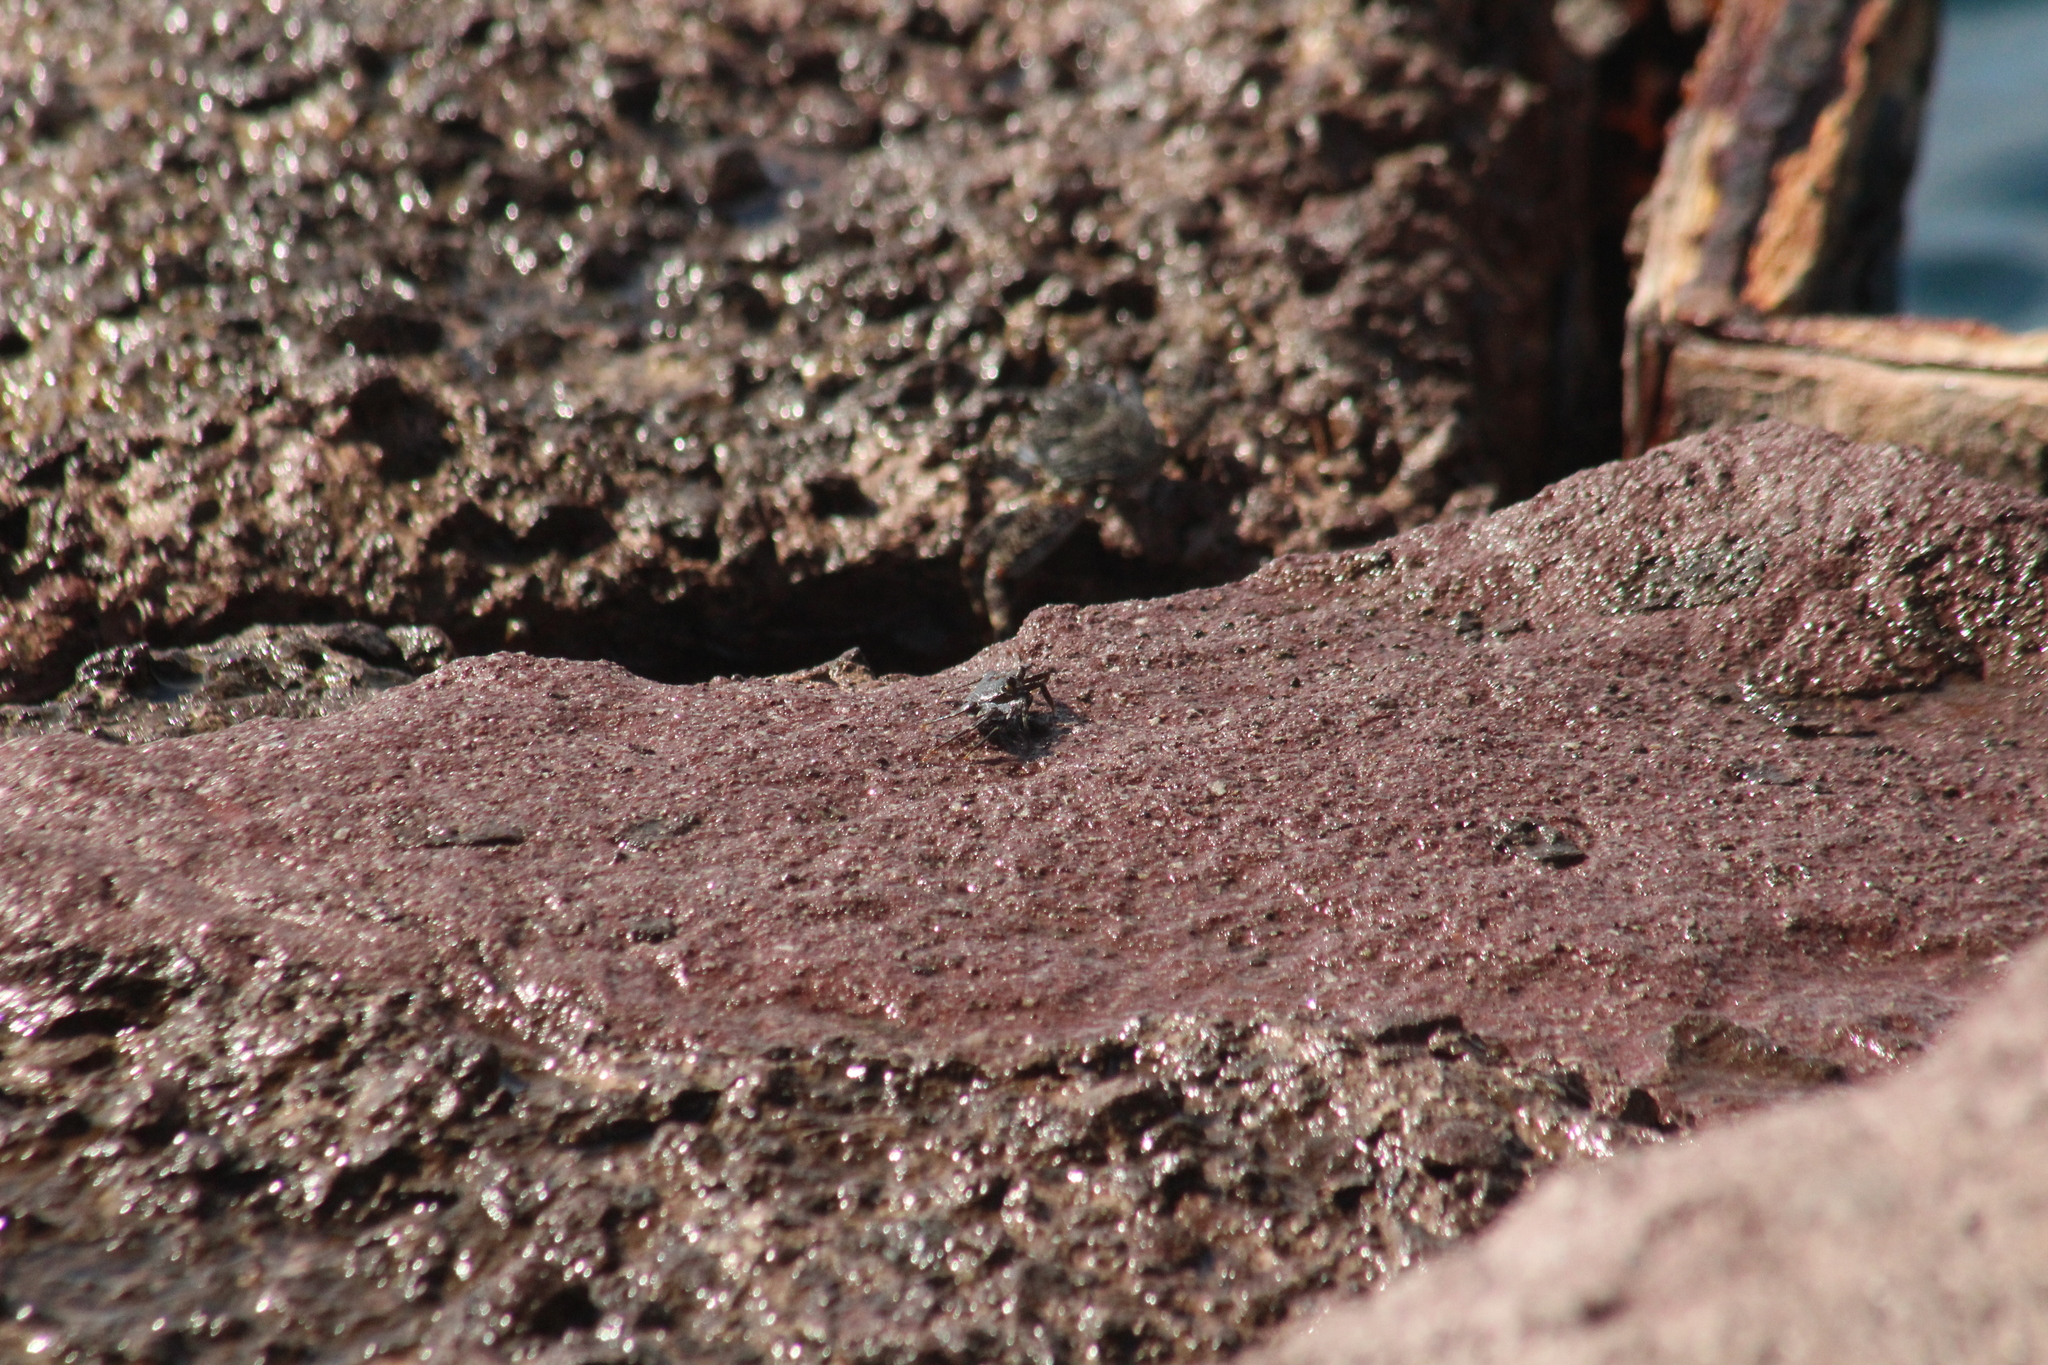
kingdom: Animalia
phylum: Arthropoda
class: Malacostraca
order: Decapoda
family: Grapsidae
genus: Grapsus
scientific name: Grapsus grapsus
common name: Sally lightfoot
